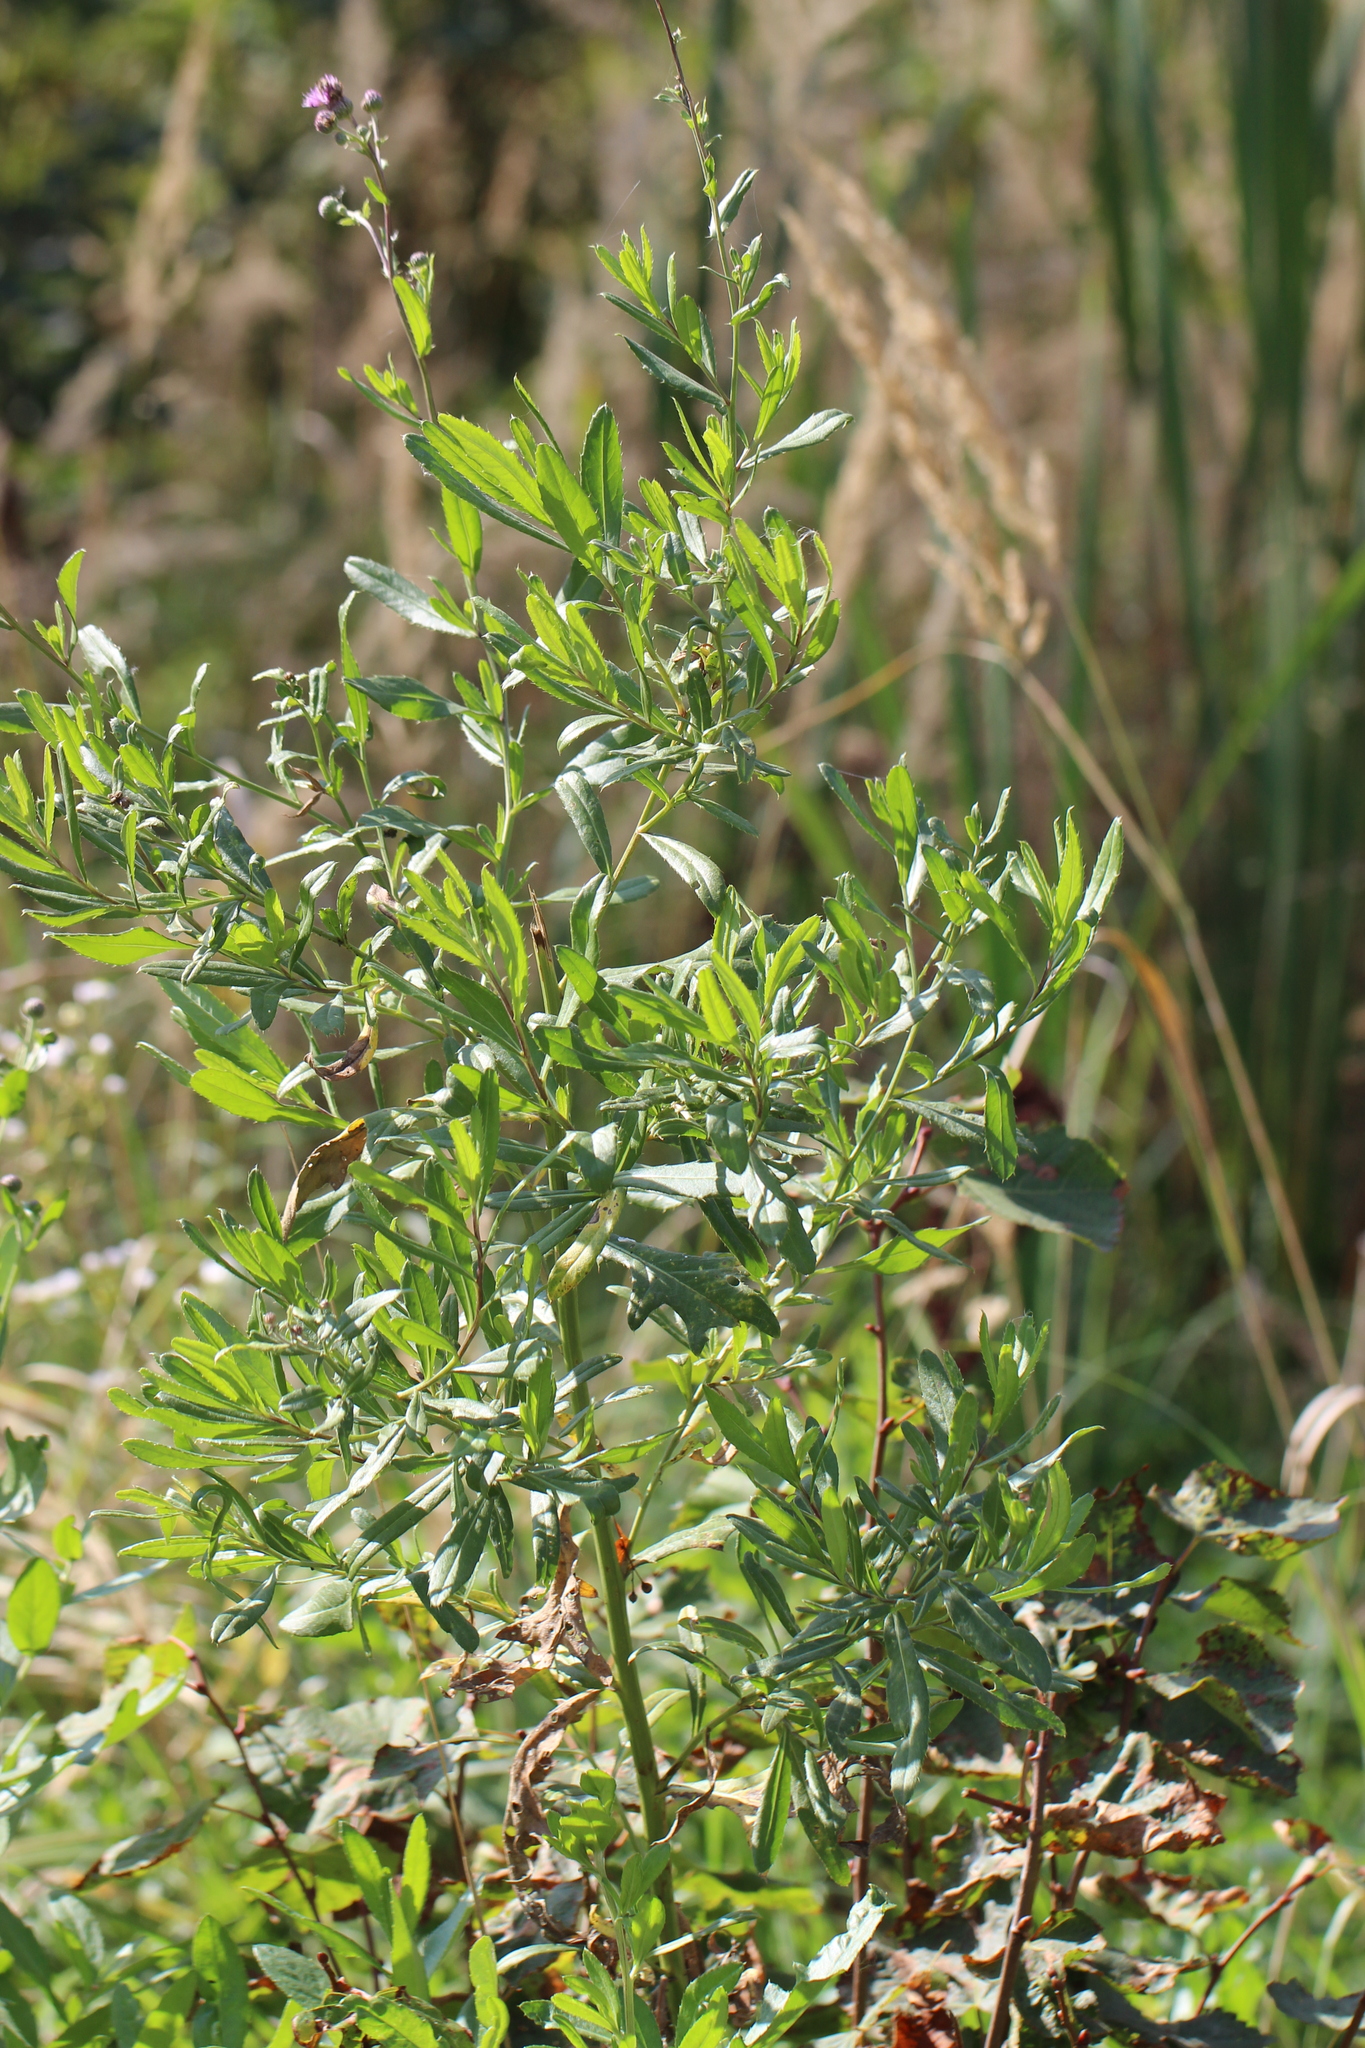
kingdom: Plantae
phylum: Tracheophyta
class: Magnoliopsida
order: Asterales
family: Asteraceae
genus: Cirsium
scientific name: Cirsium arvense
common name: Creeping thistle
